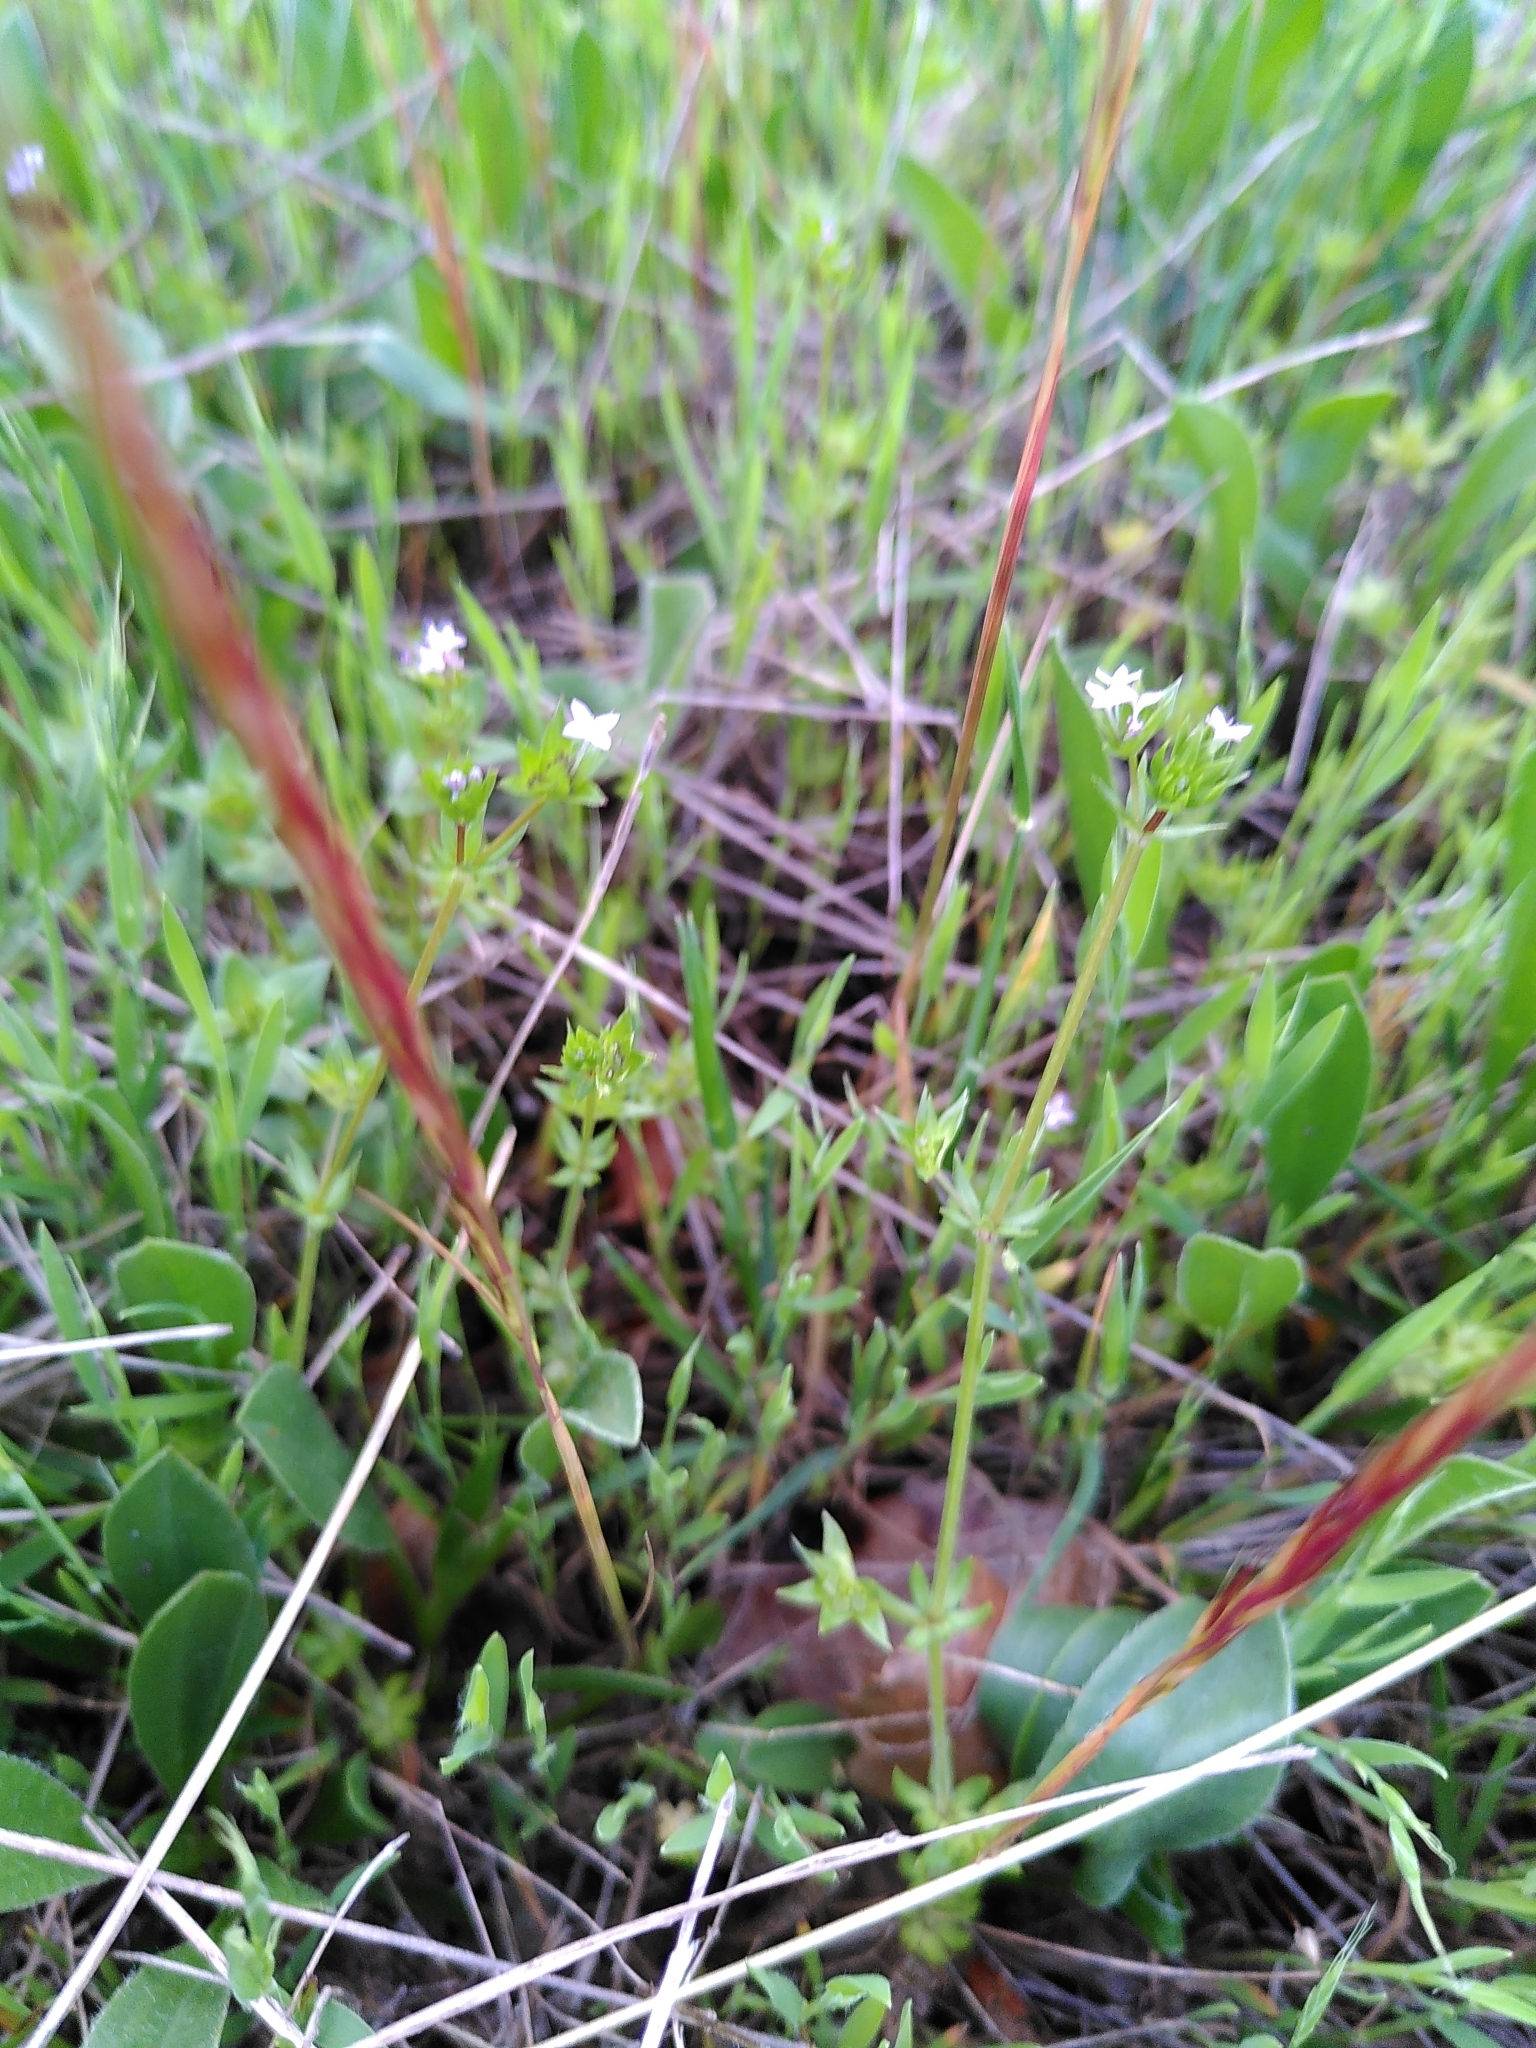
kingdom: Plantae
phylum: Tracheophyta
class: Magnoliopsida
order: Gentianales
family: Rubiaceae
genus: Sherardia
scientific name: Sherardia arvensis
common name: Field madder
